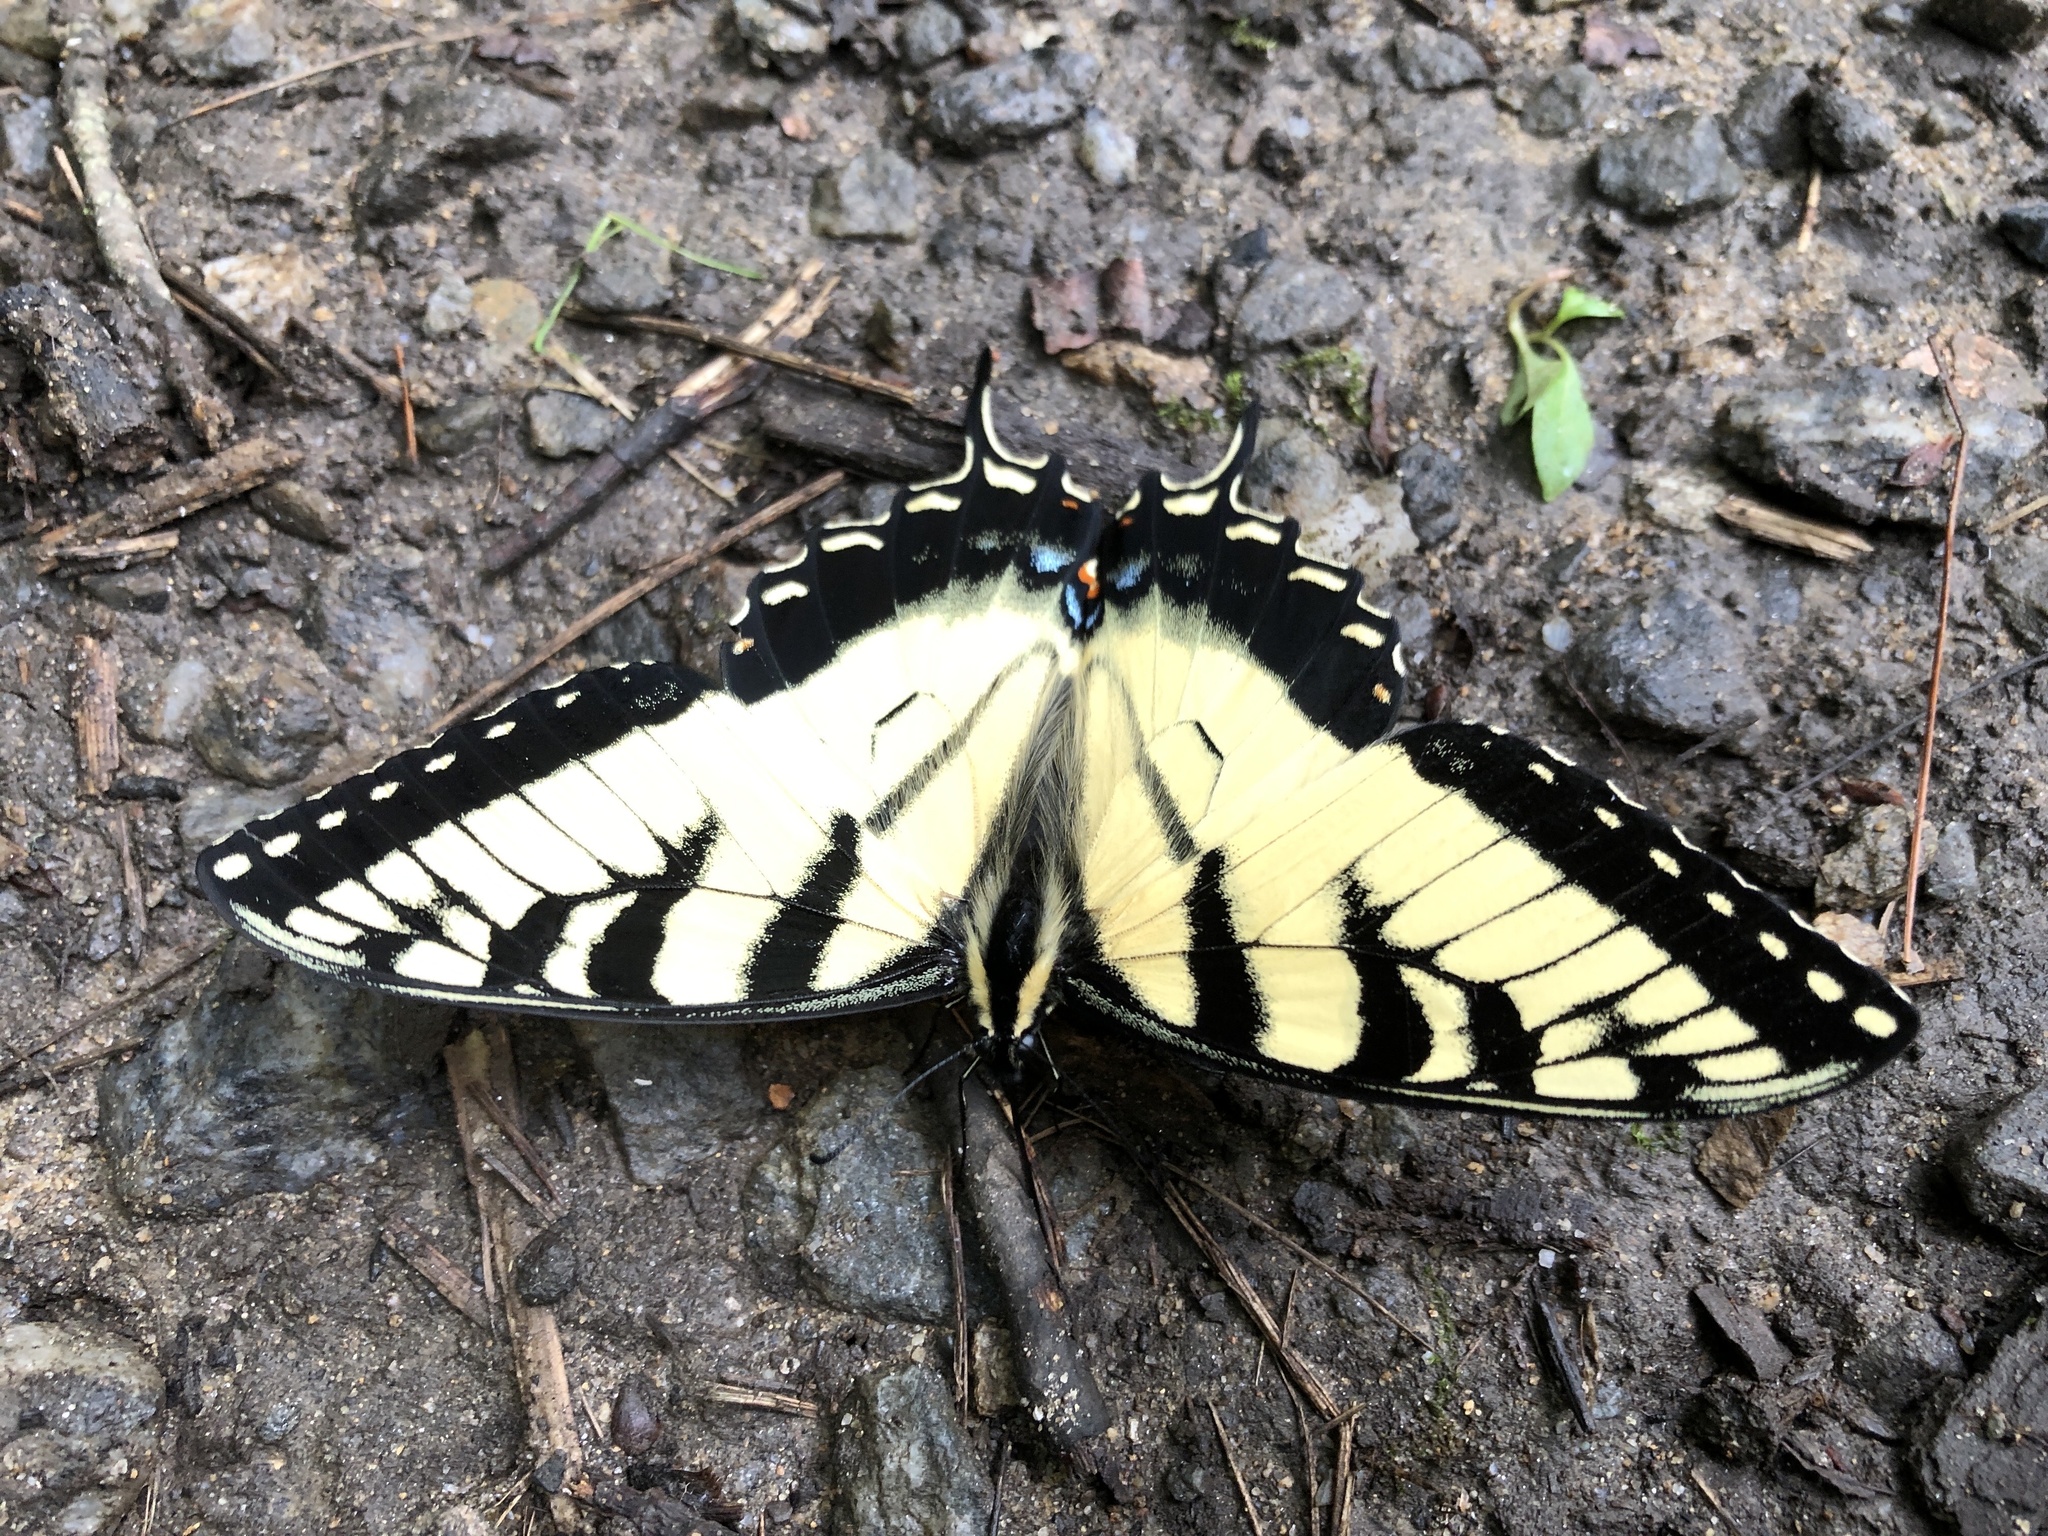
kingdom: Animalia
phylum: Arthropoda
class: Insecta
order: Lepidoptera
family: Papilionidae
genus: Papilio
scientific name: Papilio glaucus
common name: Tiger swallowtail
